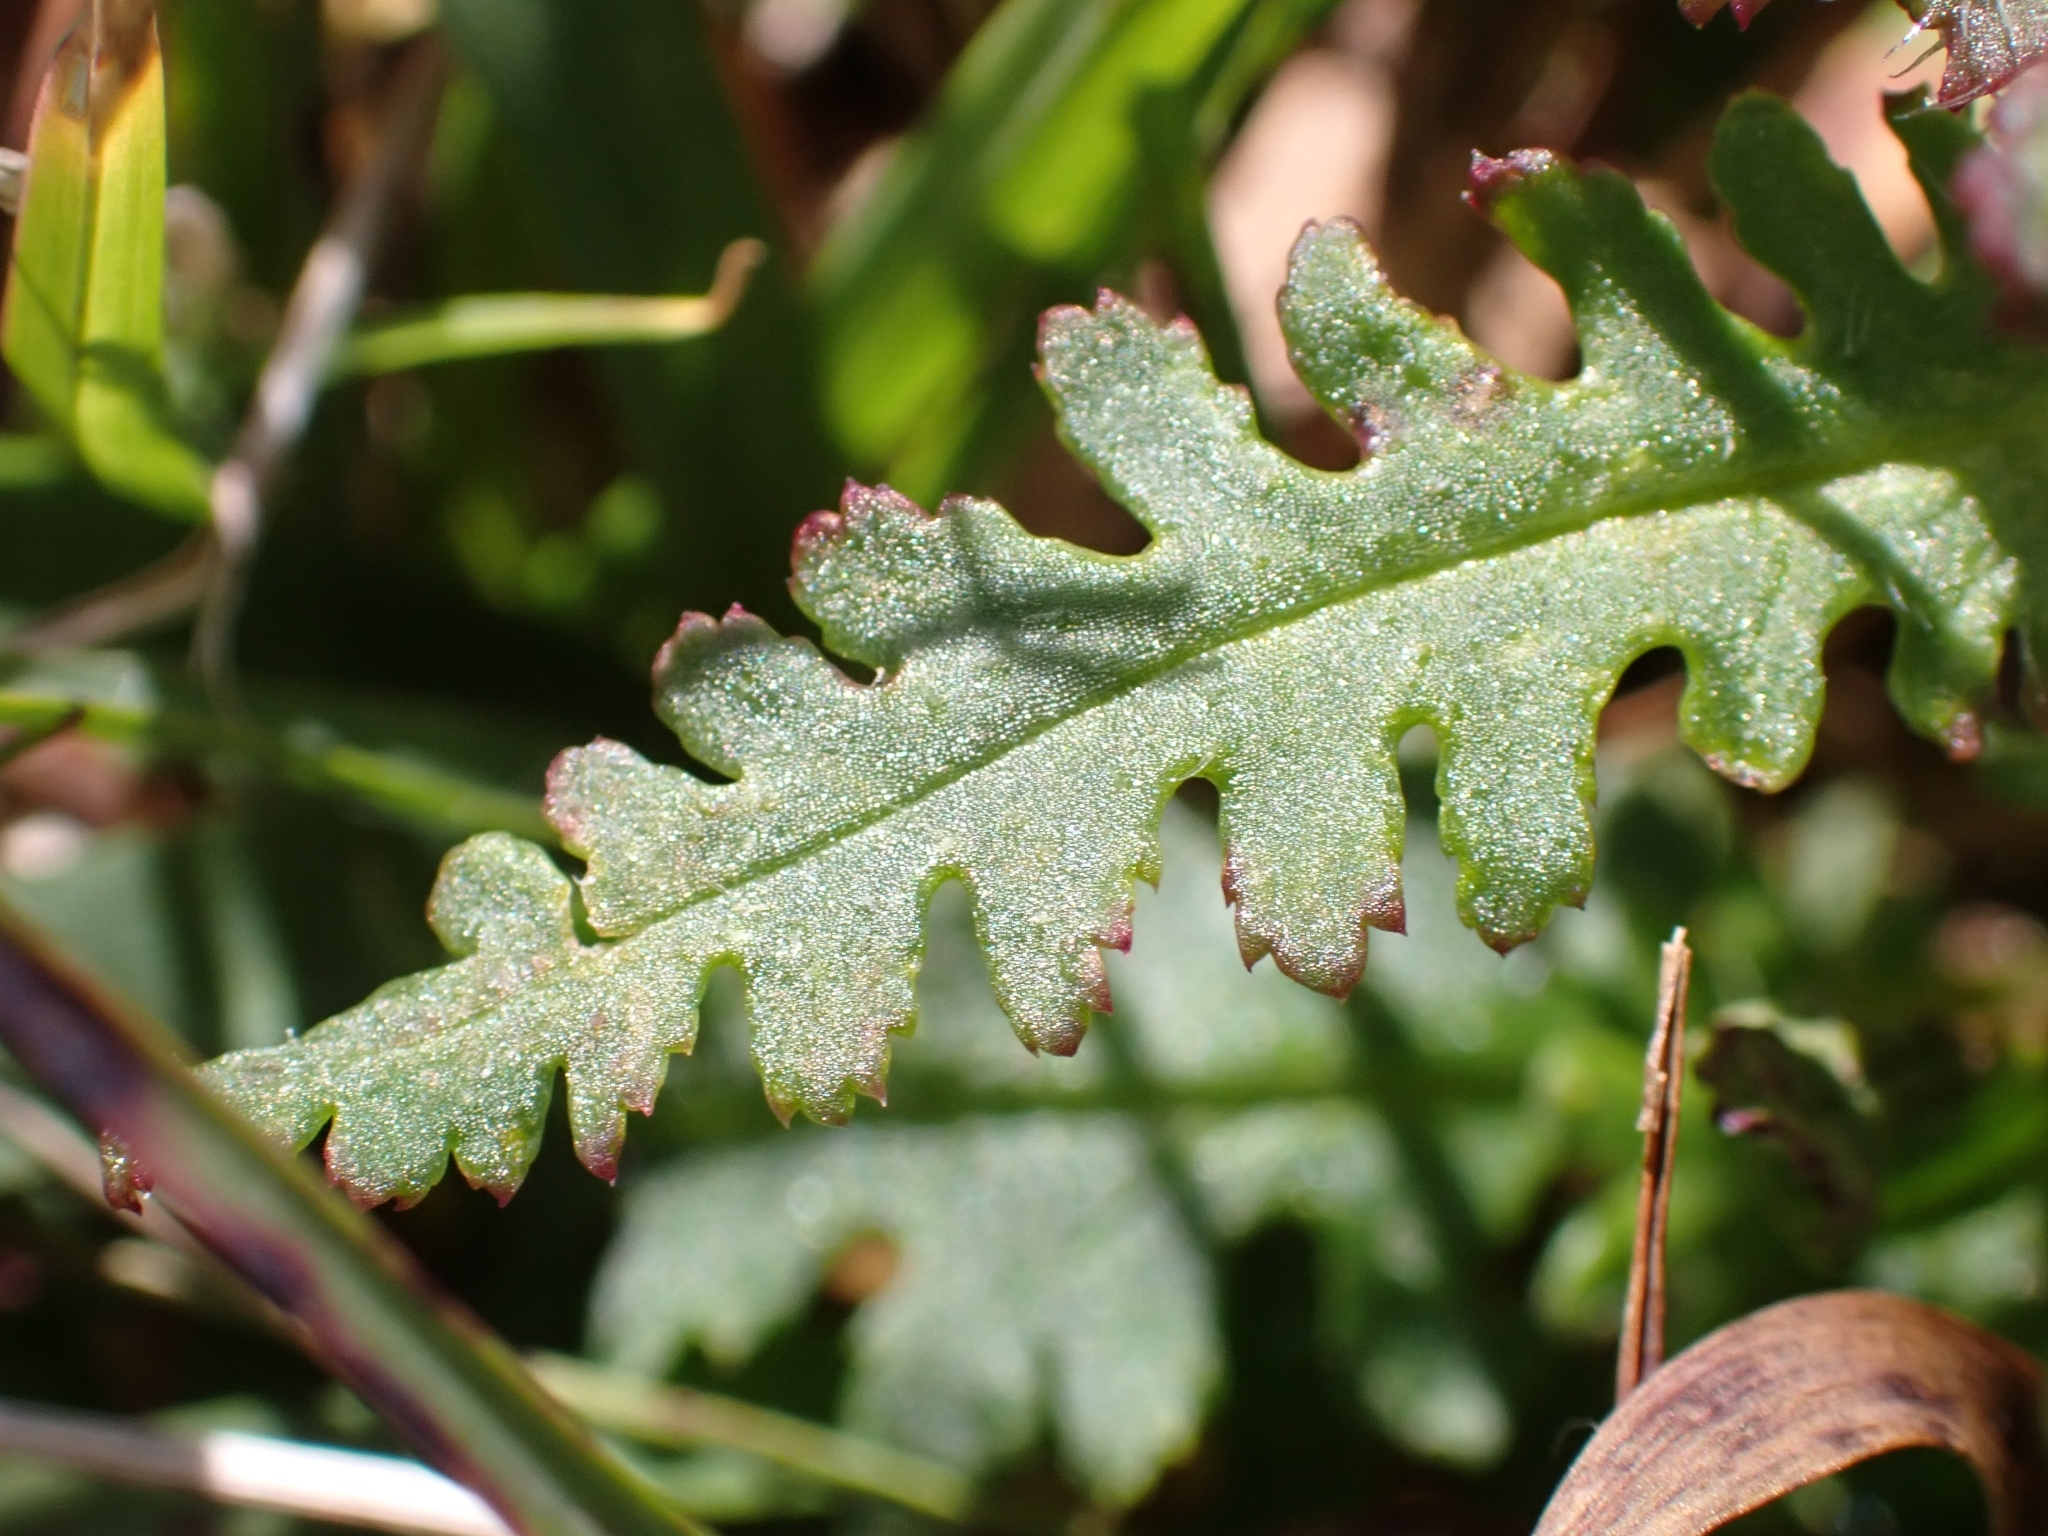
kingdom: Plantae
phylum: Tracheophyta
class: Magnoliopsida
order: Lamiales
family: Orobanchaceae
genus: Pedicularis
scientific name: Pedicularis verticillata
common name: Whorled lousewort
